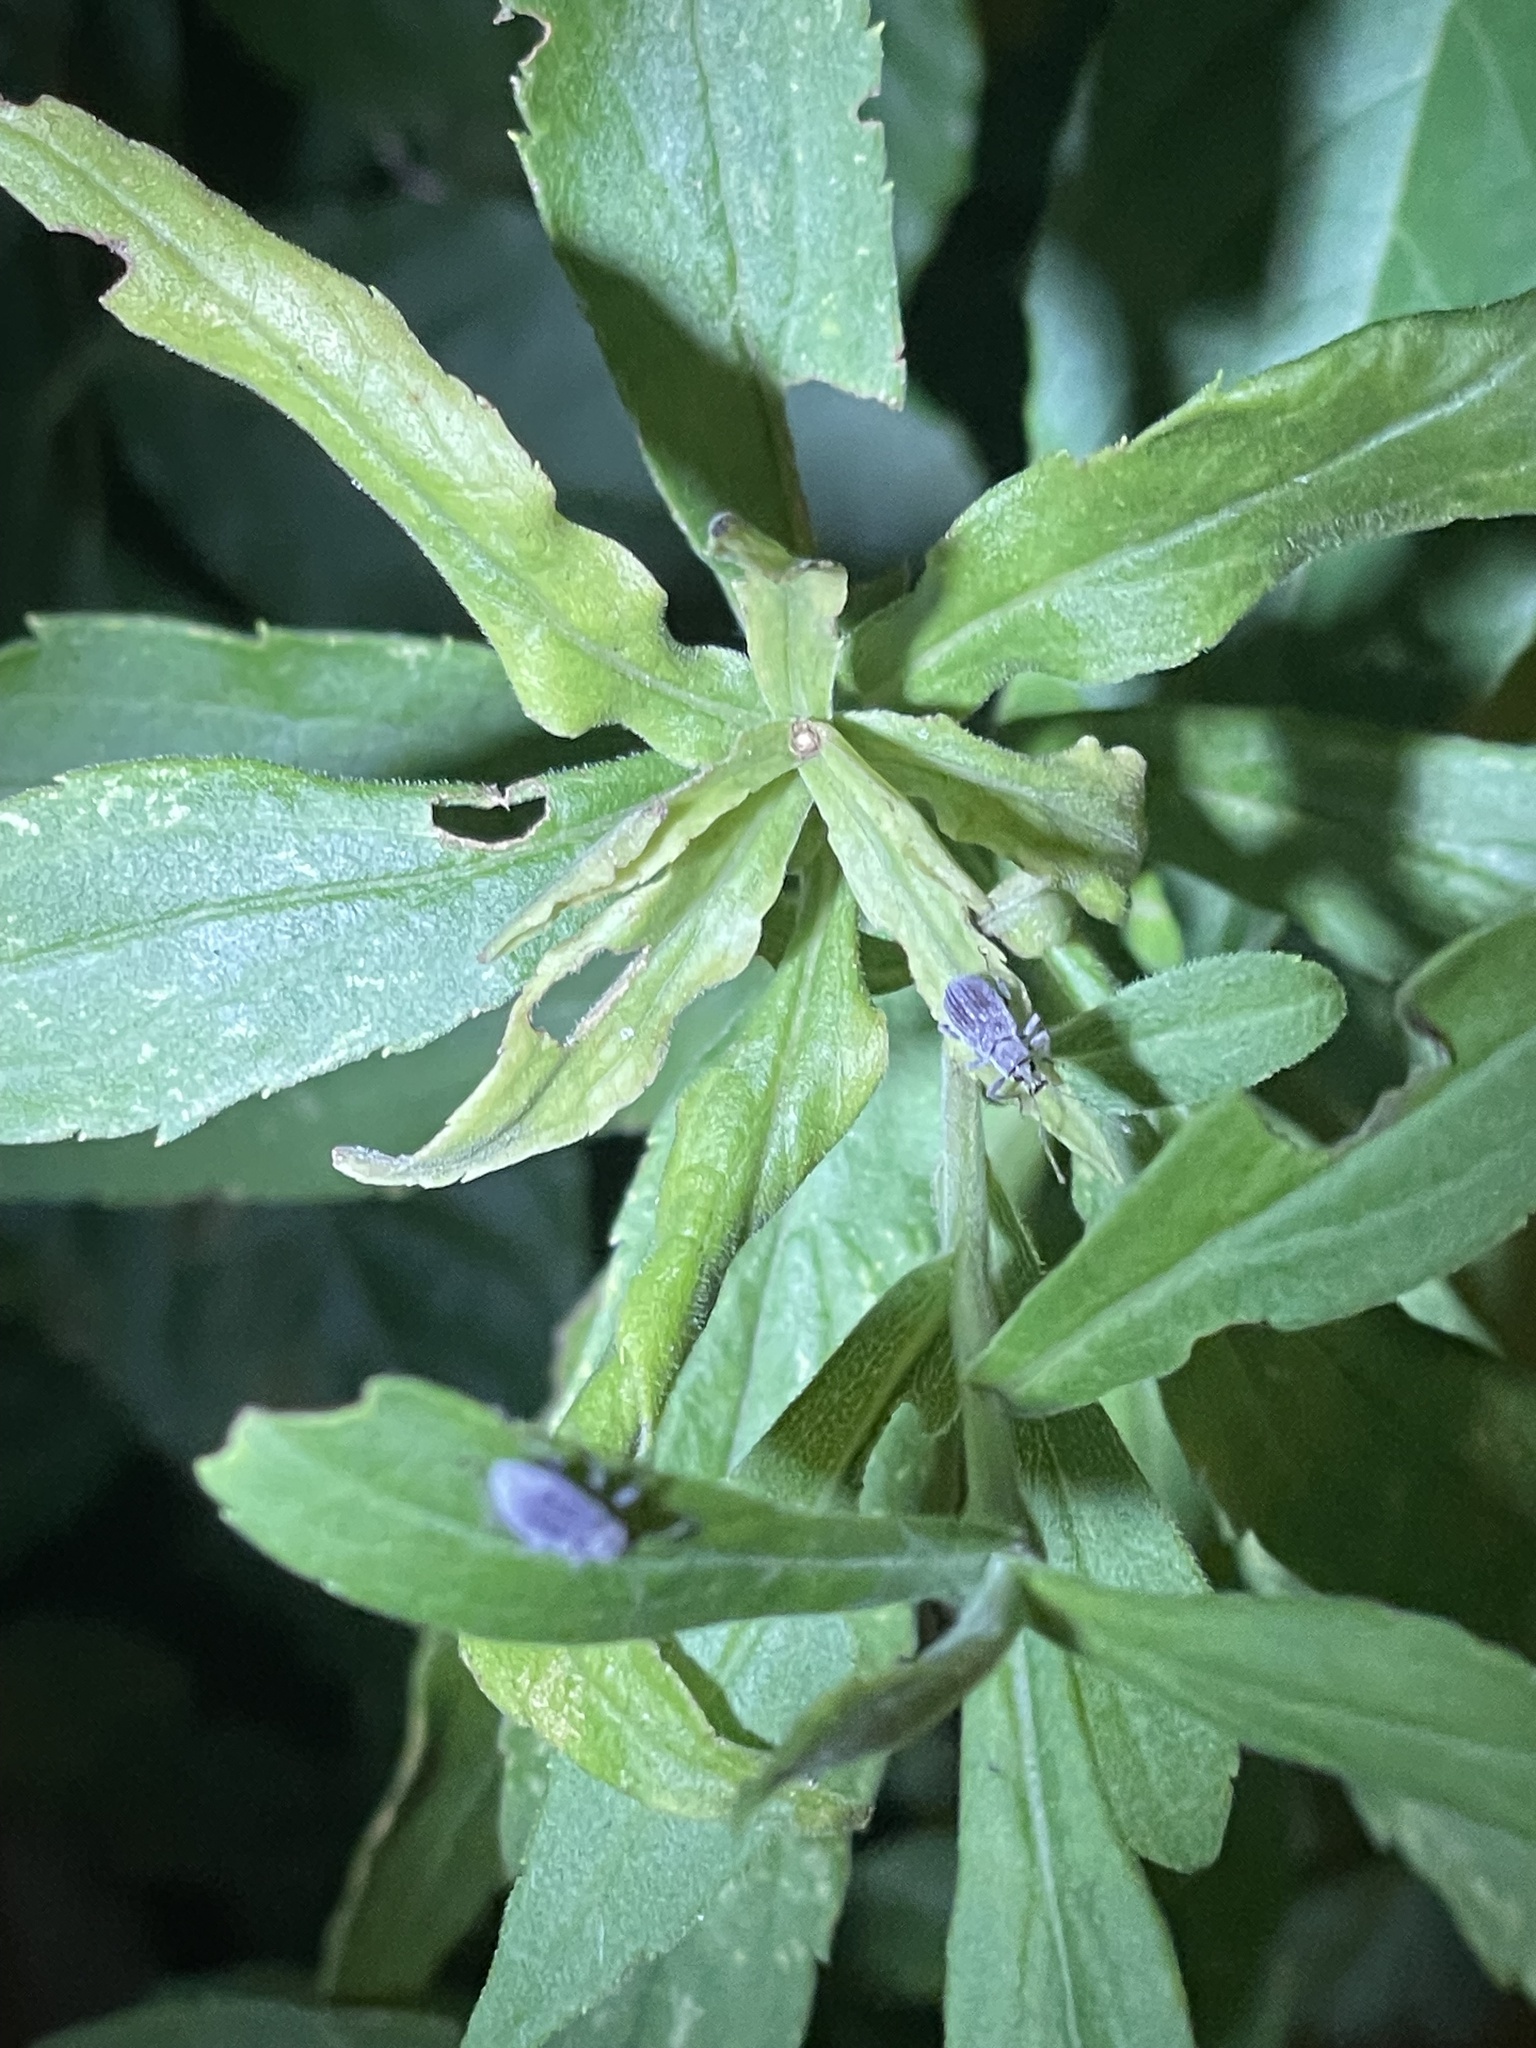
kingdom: Animalia
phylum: Arthropoda
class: Insecta
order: Coleoptera
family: Curculionidae
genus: Cyrtepistomus
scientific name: Cyrtepistomus castaneus
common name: Weevil
